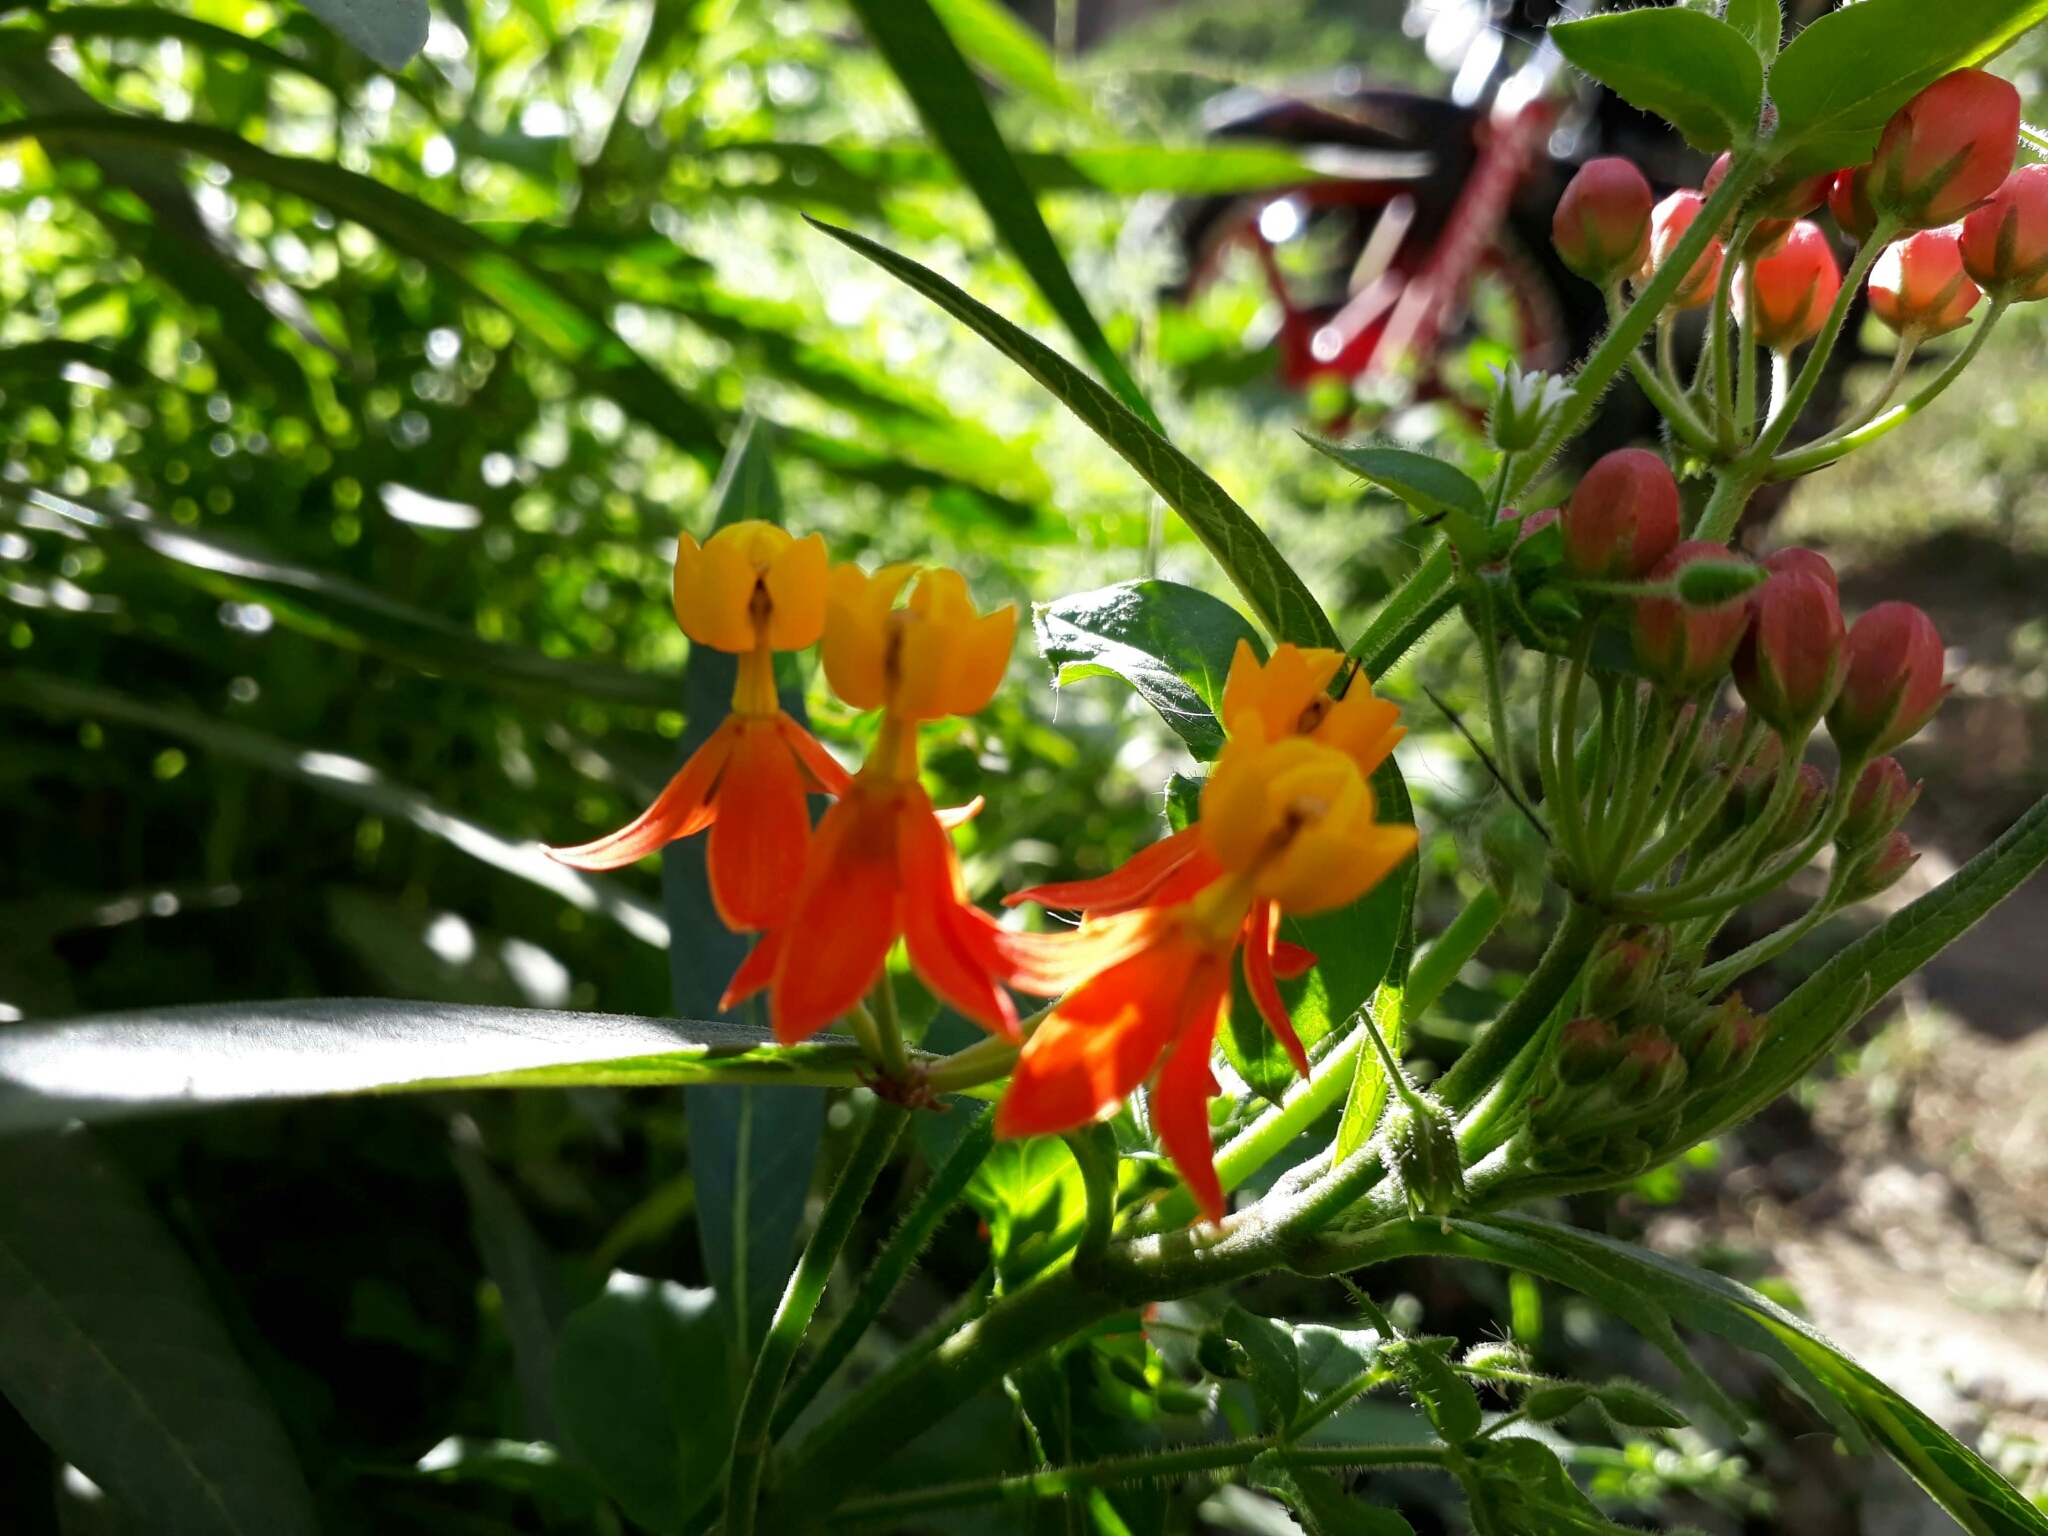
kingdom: Plantae
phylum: Tracheophyta
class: Magnoliopsida
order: Gentianales
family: Apocynaceae
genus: Asclepias
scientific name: Asclepias curassavica
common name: Bloodflower
